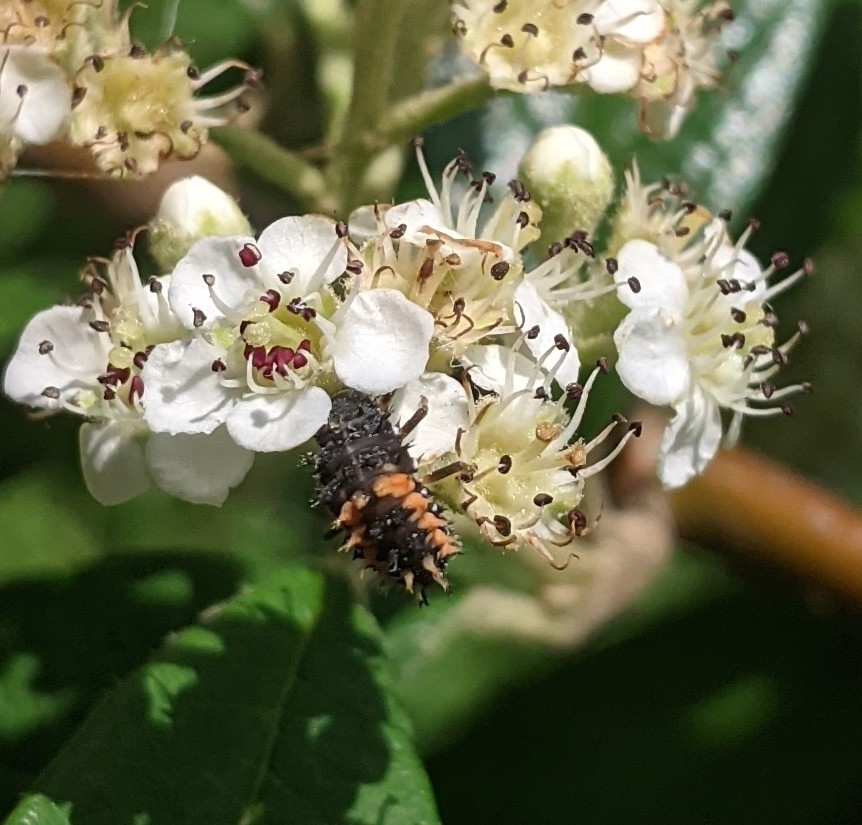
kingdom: Animalia
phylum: Arthropoda
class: Insecta
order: Coleoptera
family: Coccinellidae
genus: Harmonia
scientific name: Harmonia axyridis
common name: Harlequin ladybird
